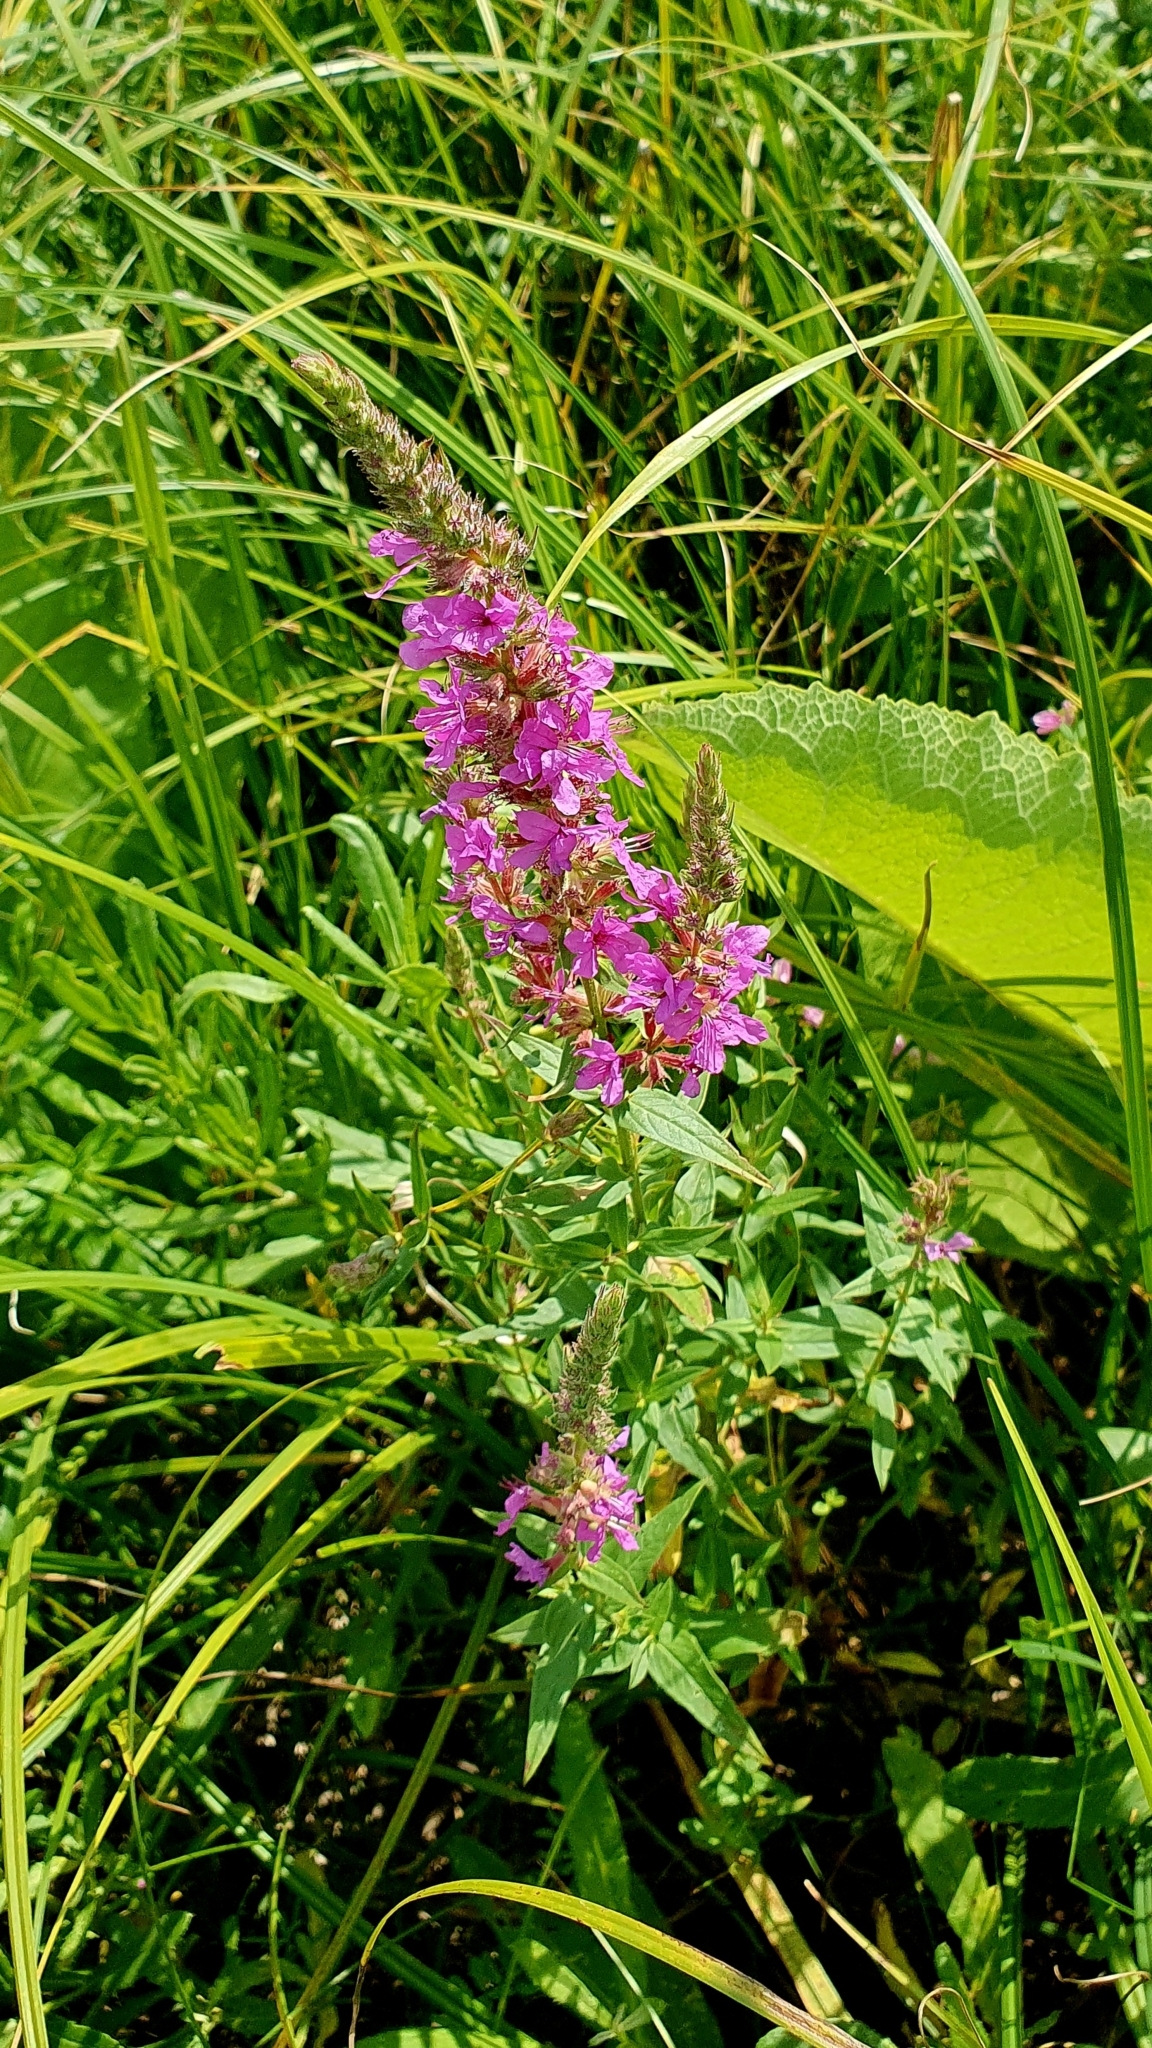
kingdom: Plantae
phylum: Tracheophyta
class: Magnoliopsida
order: Myrtales
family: Lythraceae
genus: Lythrum
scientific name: Lythrum salicaria
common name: Purple loosestrife
